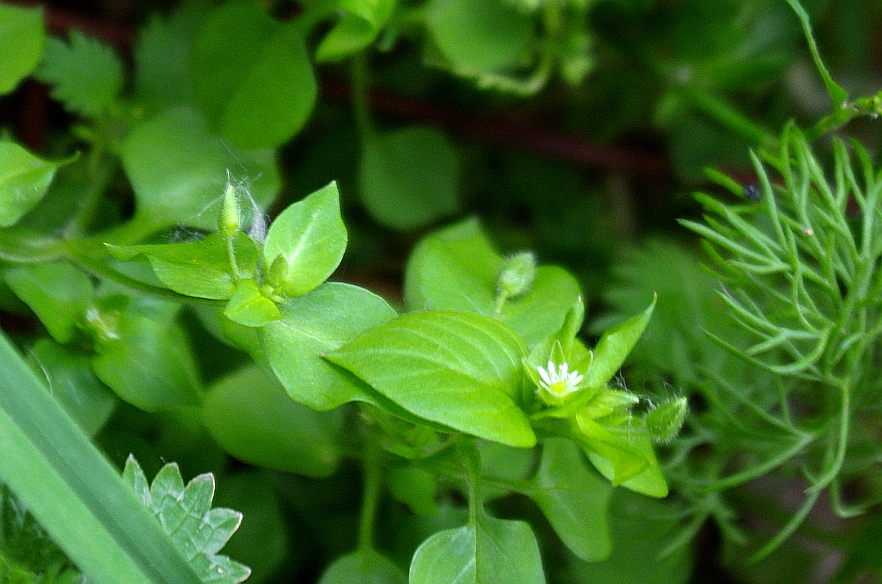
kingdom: Plantae
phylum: Tracheophyta
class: Magnoliopsida
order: Caryophyllales
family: Caryophyllaceae
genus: Stellaria
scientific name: Stellaria media
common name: Common chickweed
